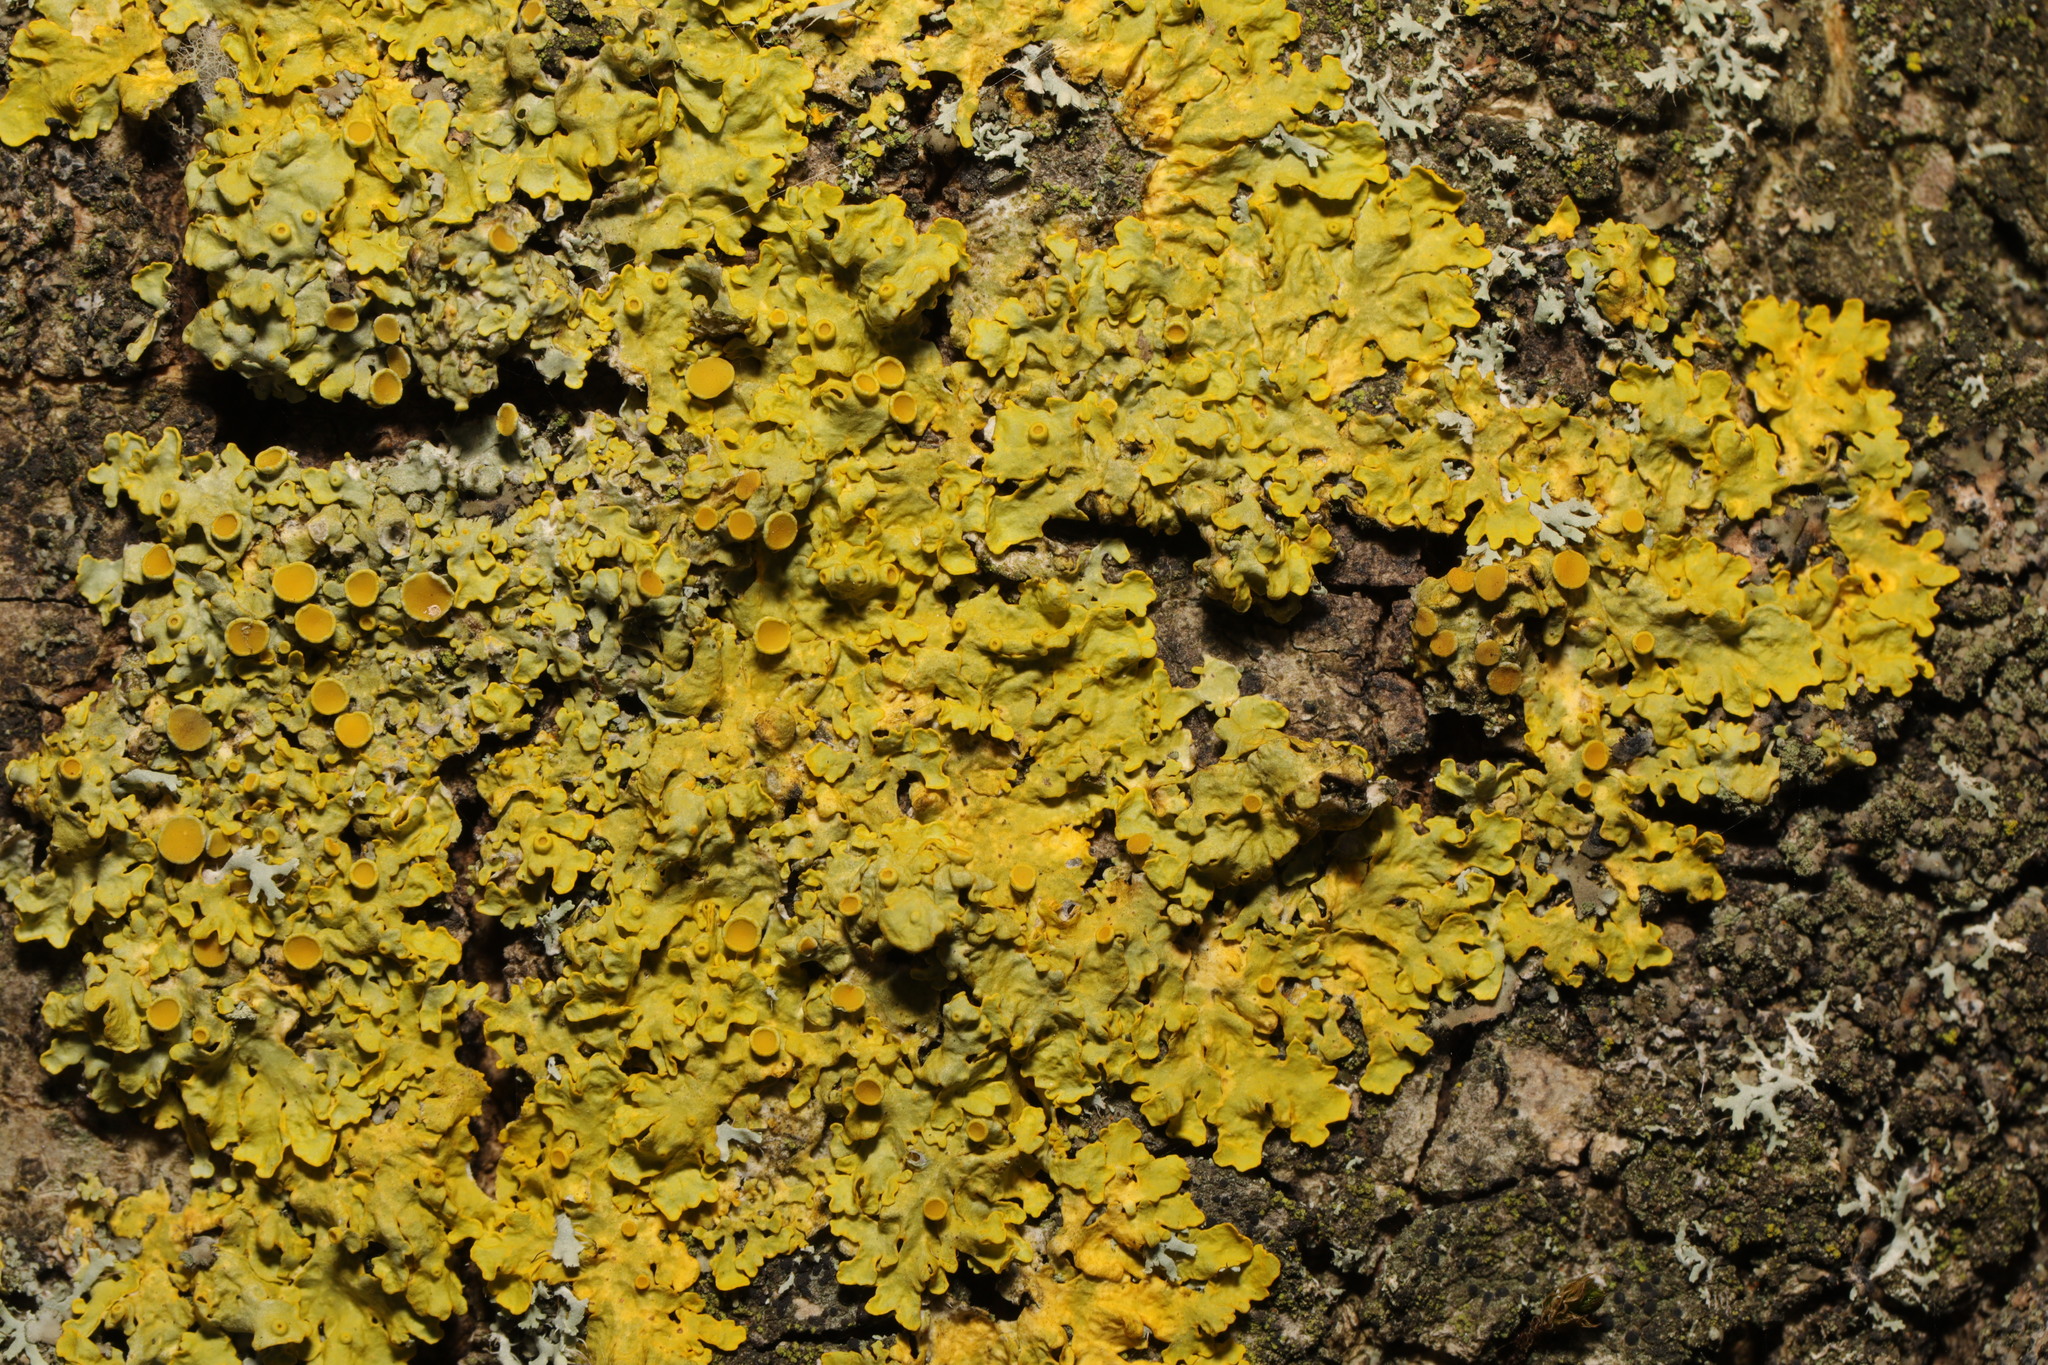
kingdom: Fungi
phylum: Ascomycota
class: Lecanoromycetes
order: Teloschistales
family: Teloschistaceae
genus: Xanthoria
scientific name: Xanthoria parietina
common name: Common orange lichen
